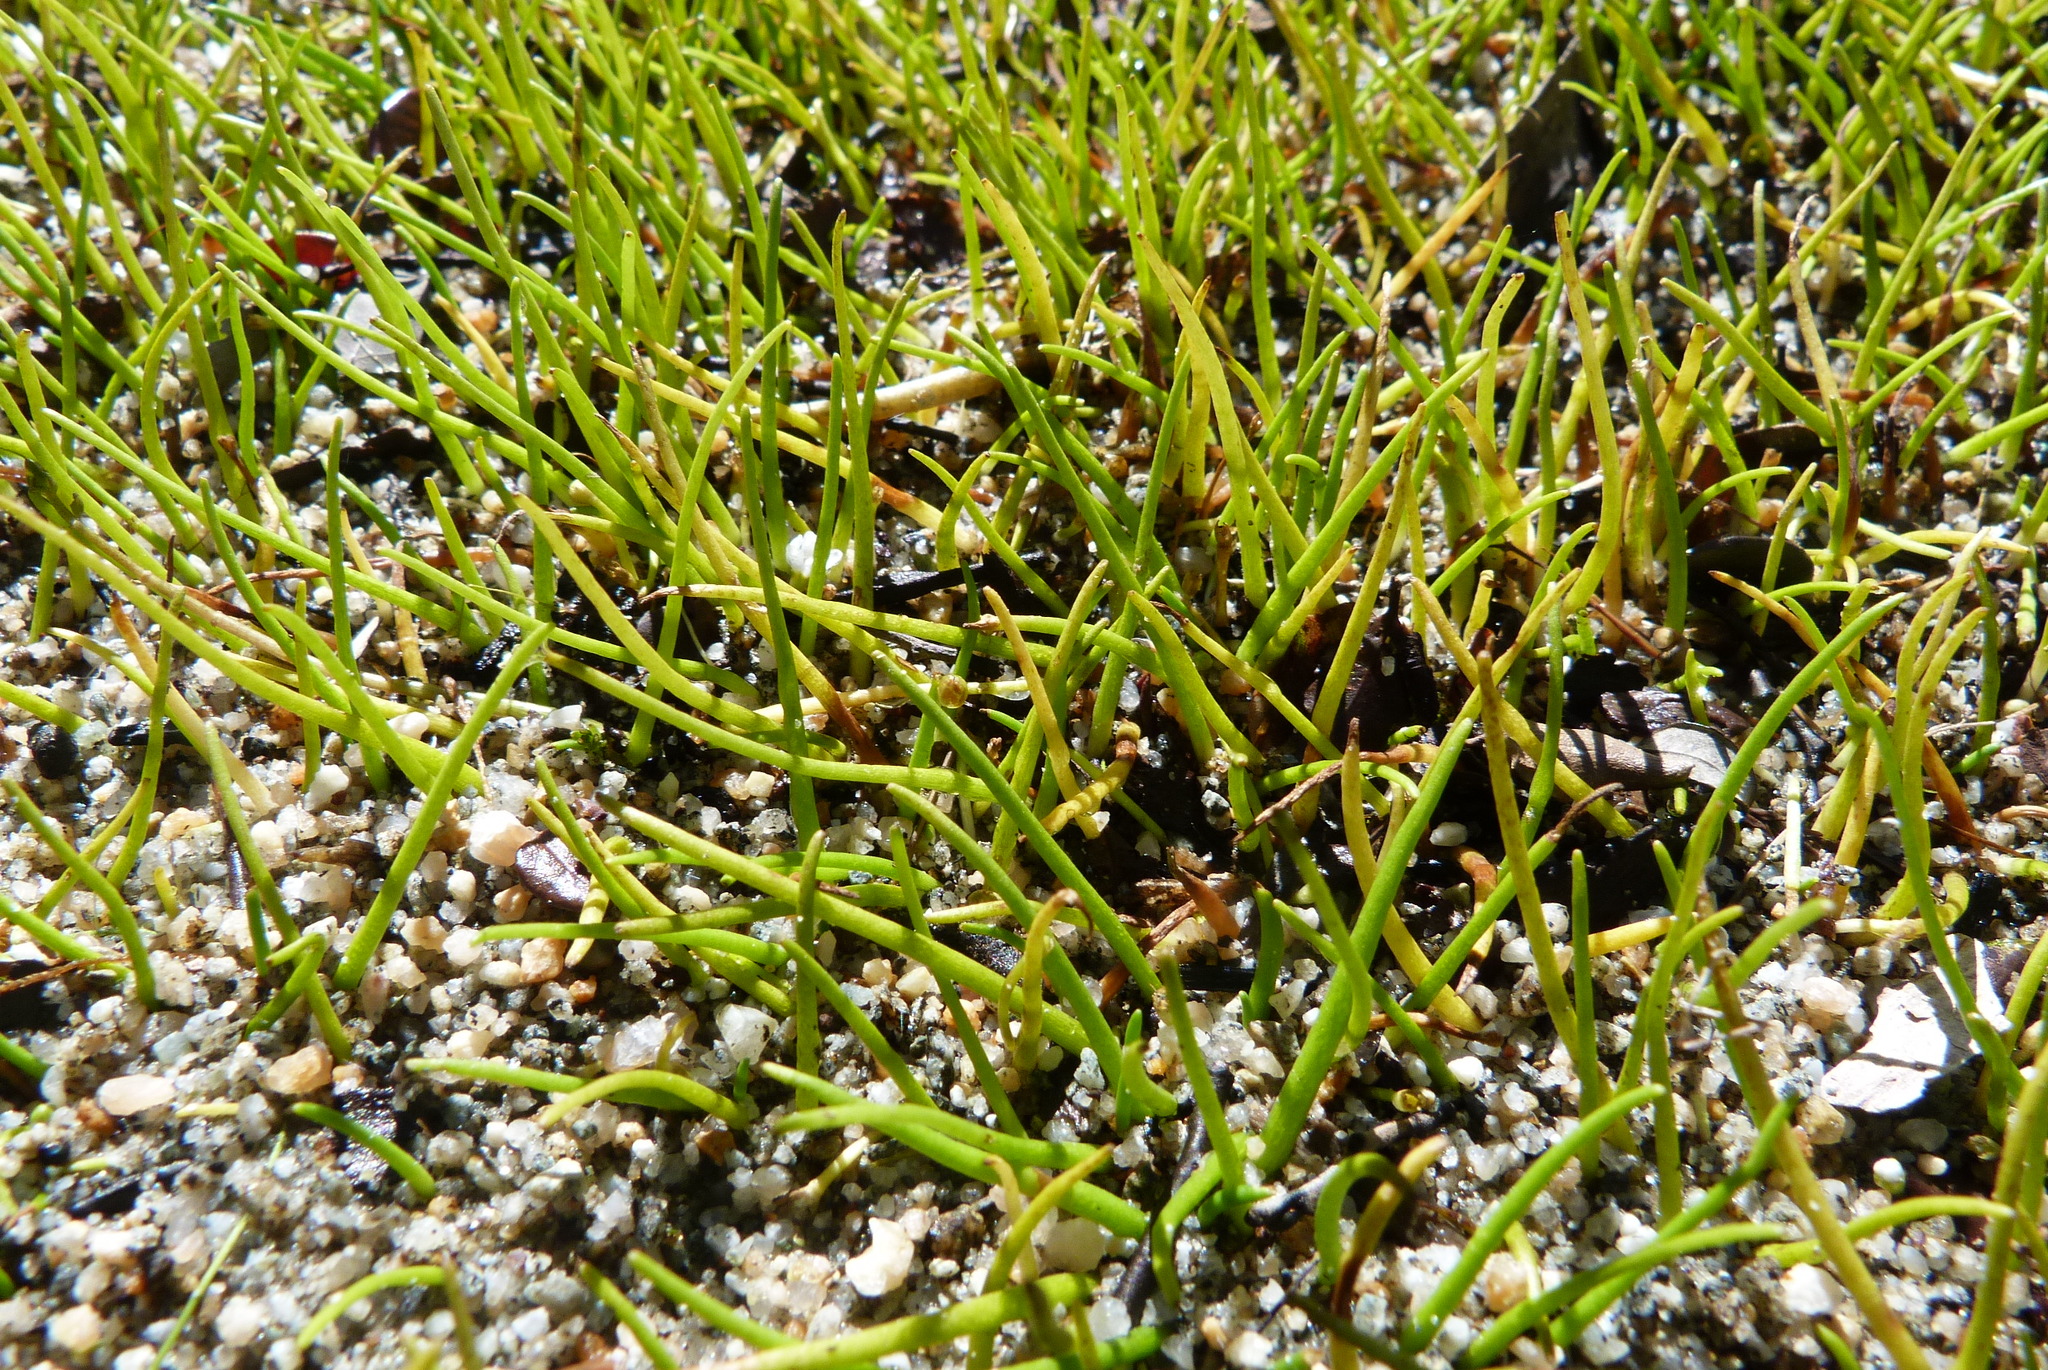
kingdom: Plantae
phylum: Tracheophyta
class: Magnoliopsida
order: Lamiales
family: Scrophulariaceae
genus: Limosella
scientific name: Limosella australis
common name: Welsh mudwort
